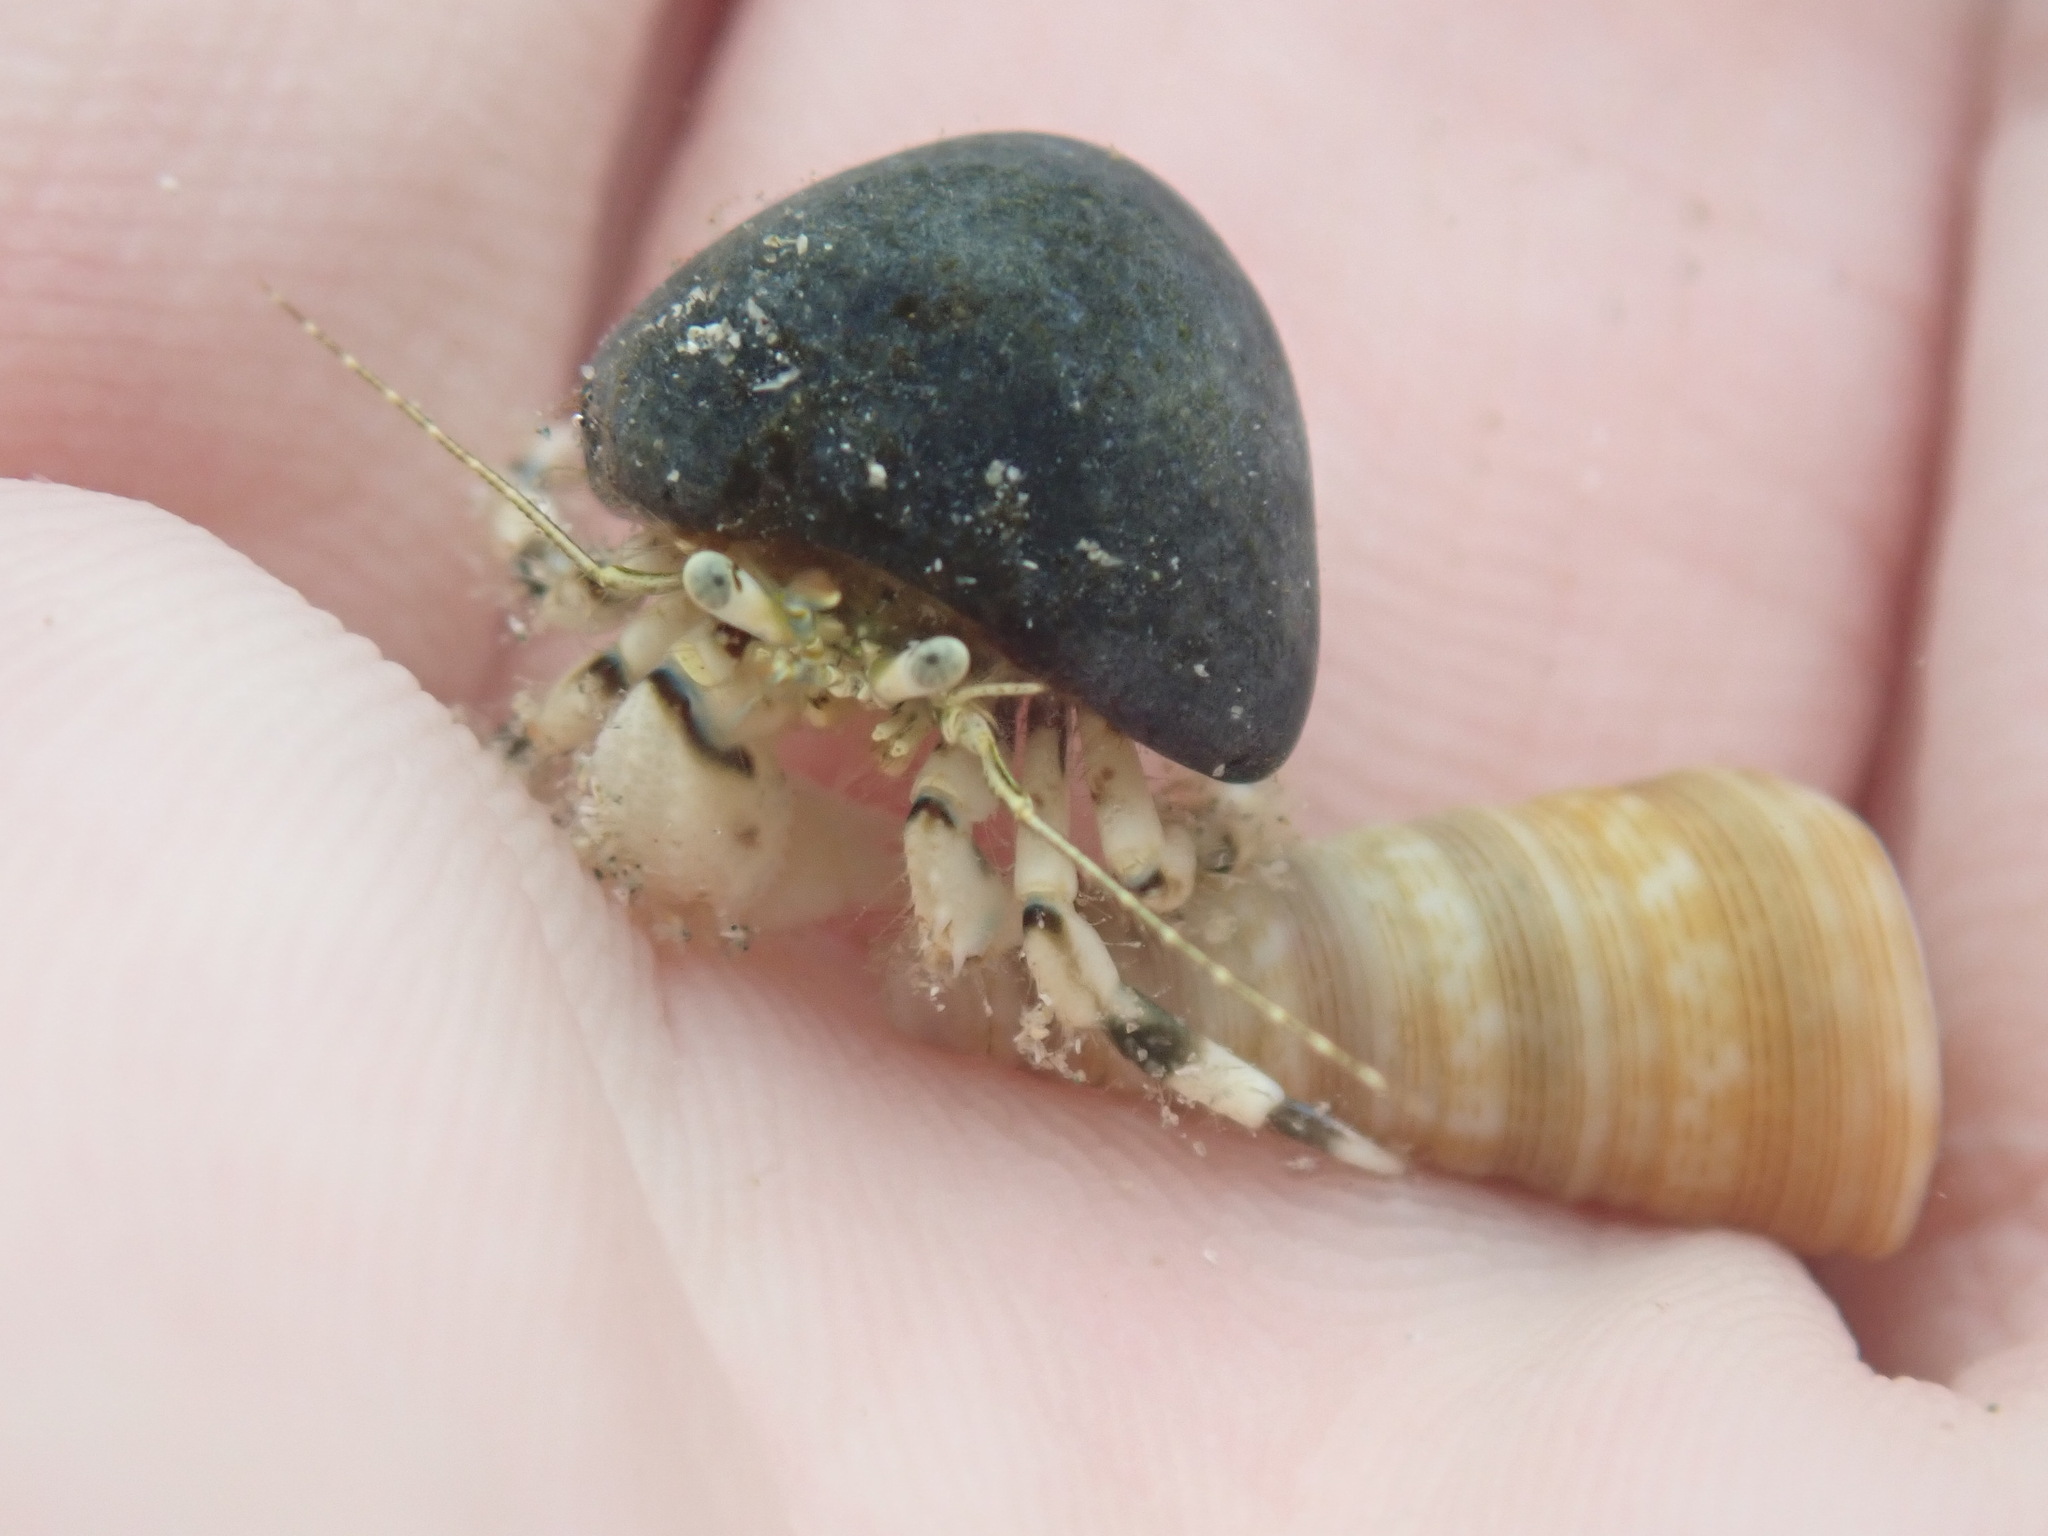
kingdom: Animalia
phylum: Arthropoda
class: Malacostraca
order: Decapoda
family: Paguridae
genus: Pagurus
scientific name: Pagurus novizealandiae
